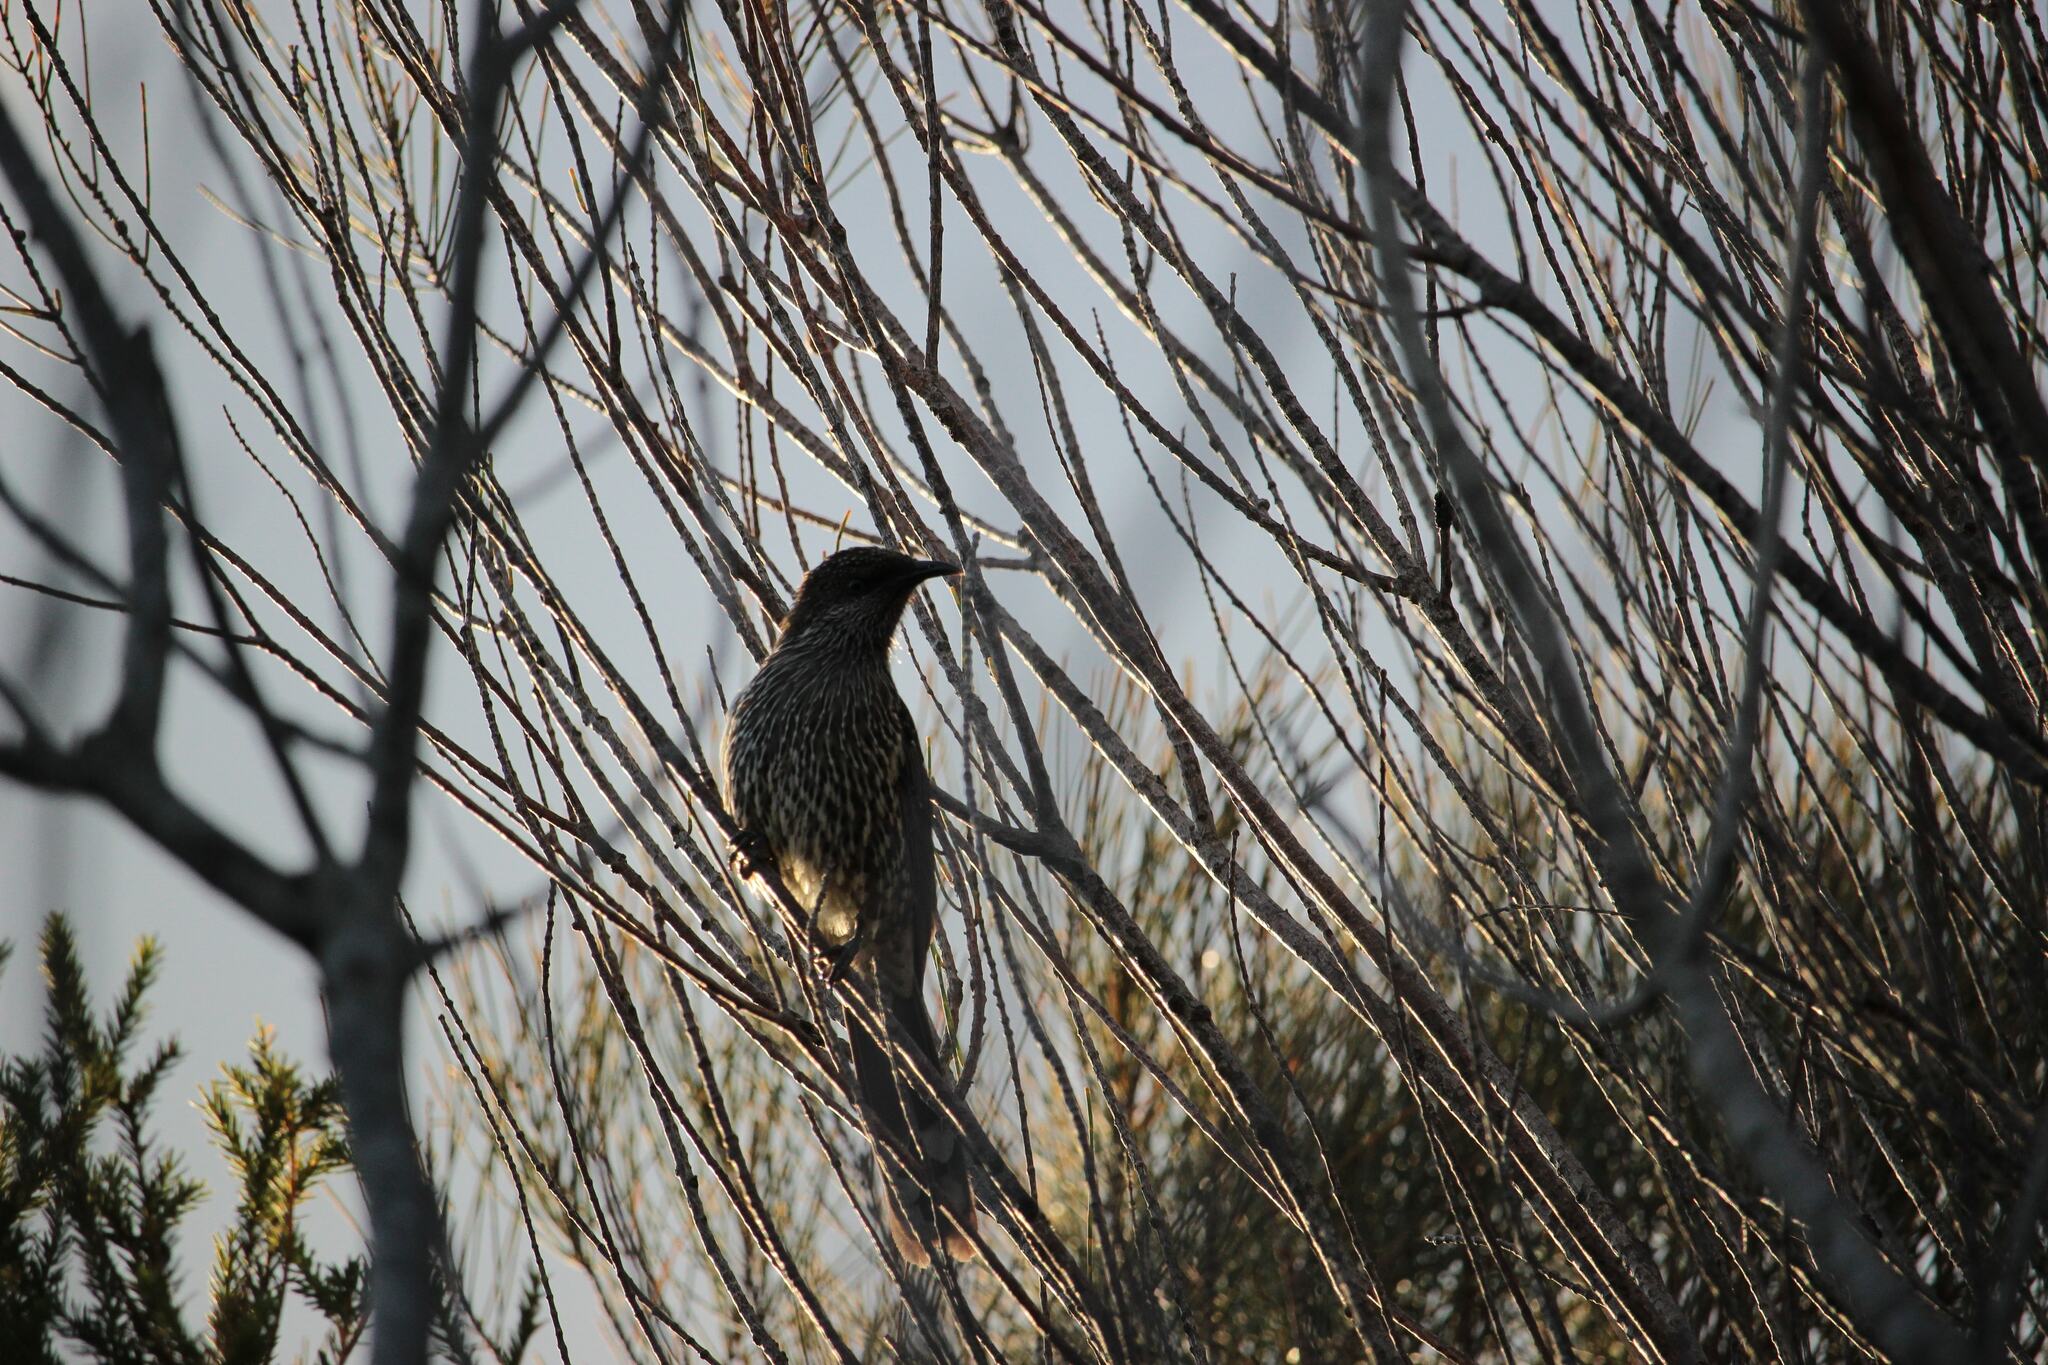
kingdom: Animalia
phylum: Chordata
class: Aves
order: Passeriformes
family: Meliphagidae
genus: Anthochaera
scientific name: Anthochaera chrysoptera
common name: Little wattlebird
